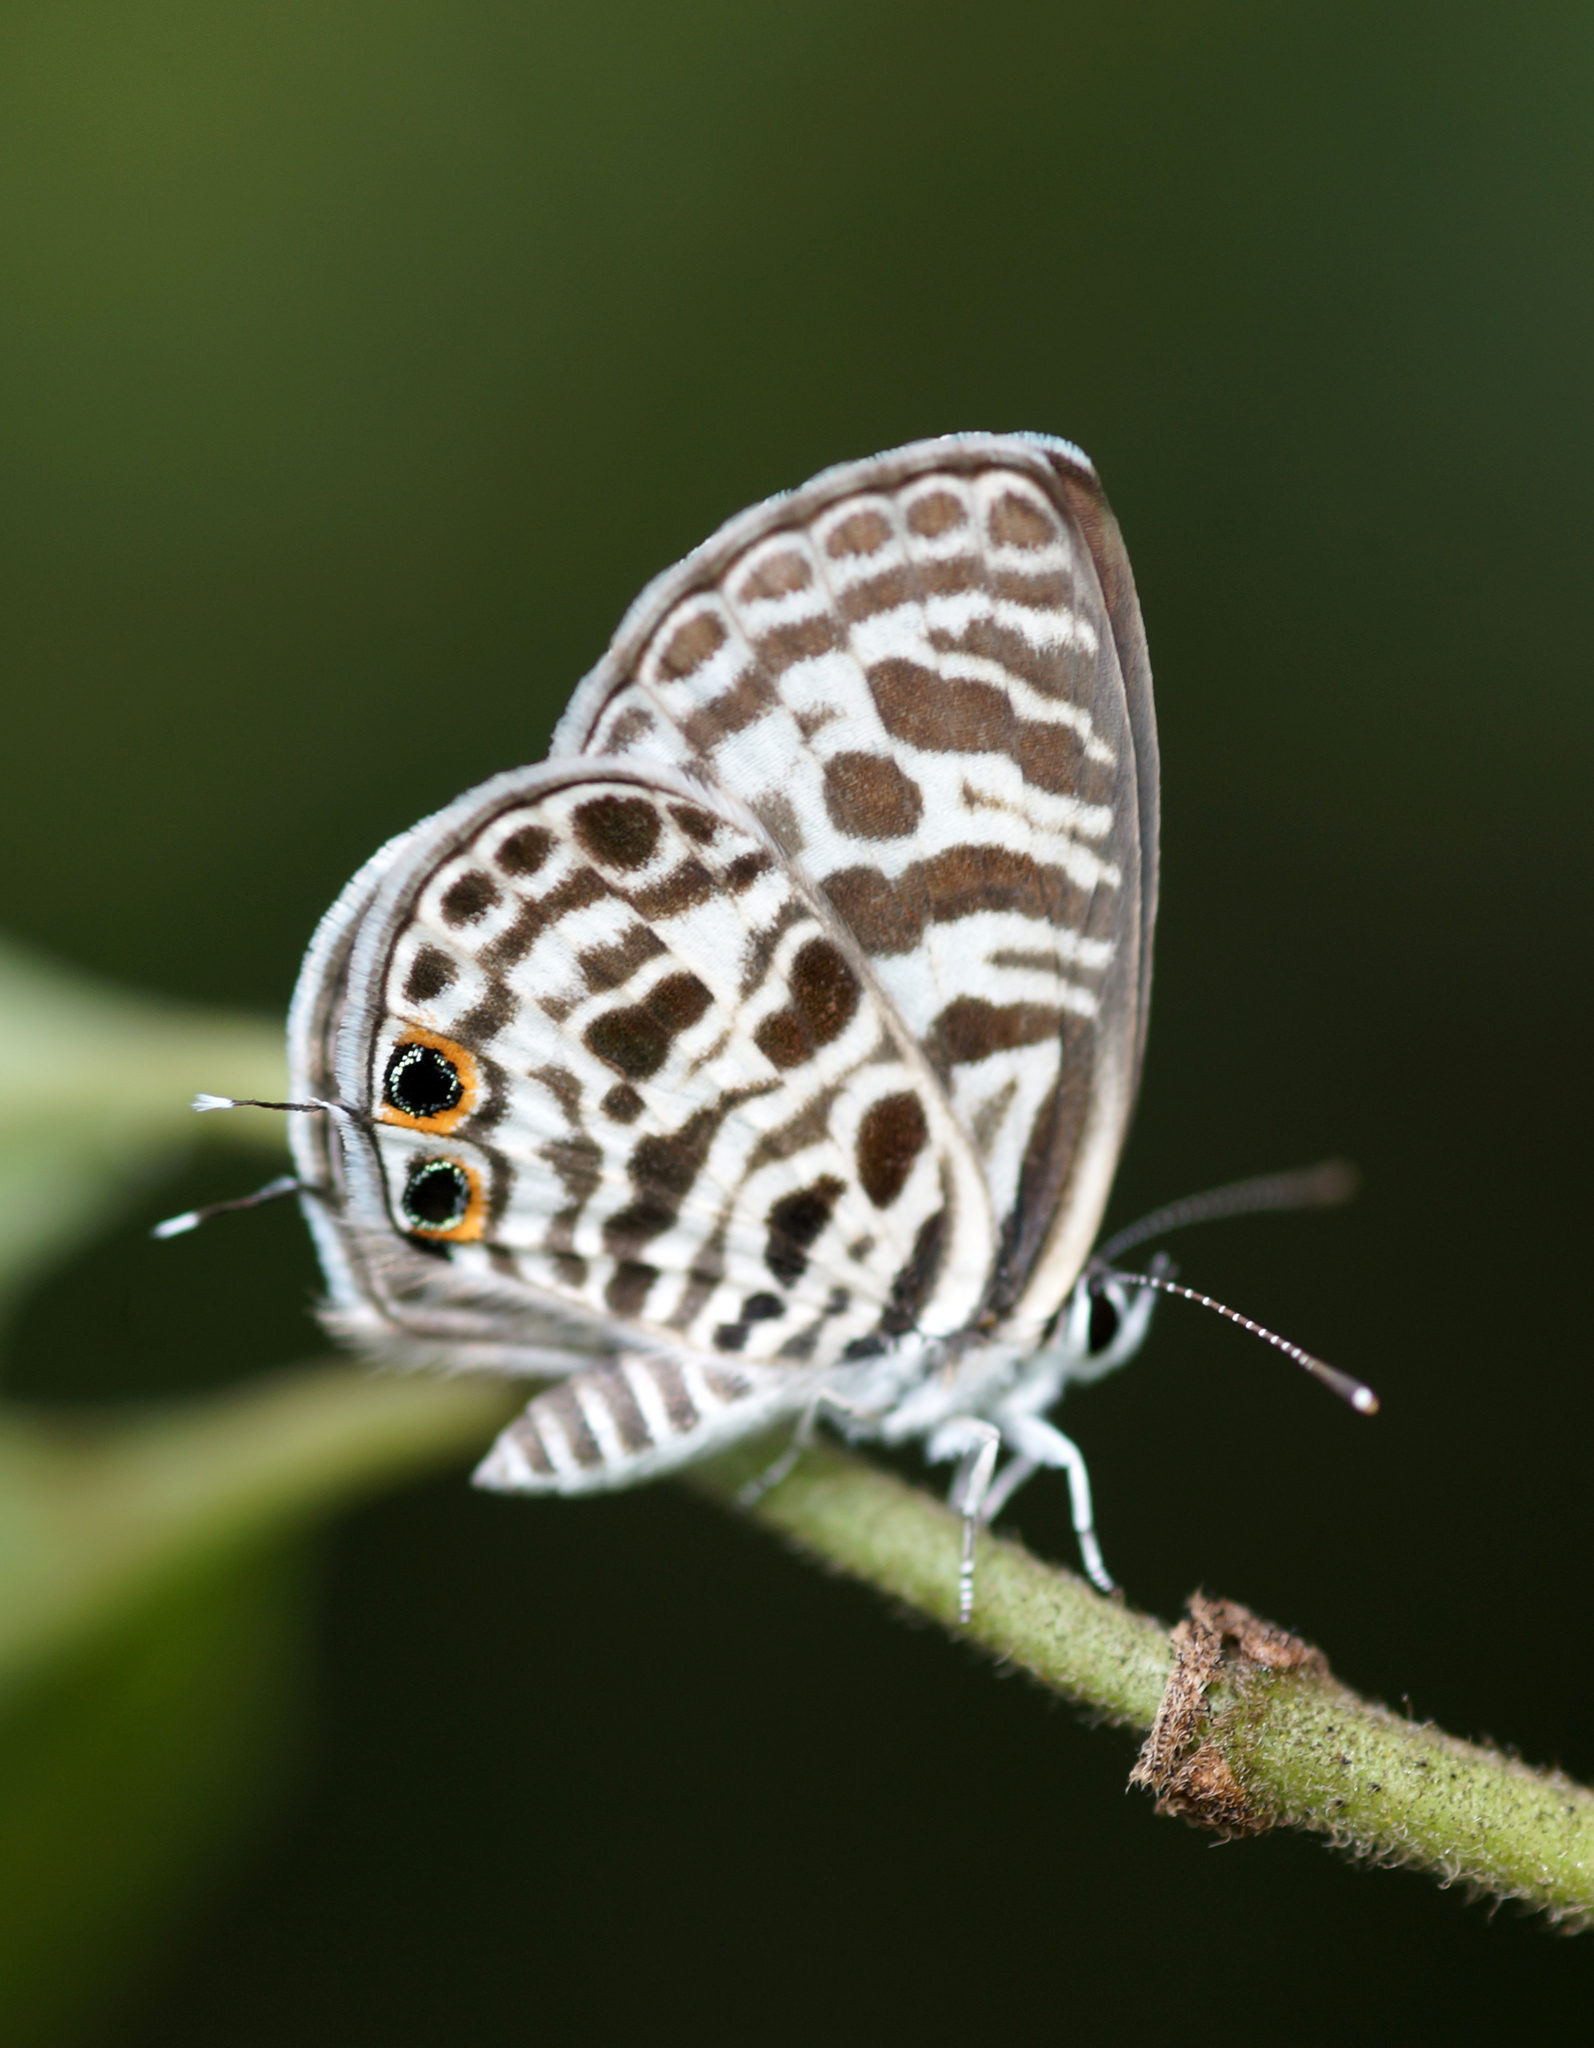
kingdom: Animalia
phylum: Arthropoda
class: Insecta
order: Lepidoptera
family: Lycaenidae
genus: Leptotes
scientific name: Leptotes plinius
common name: Zebra blue
